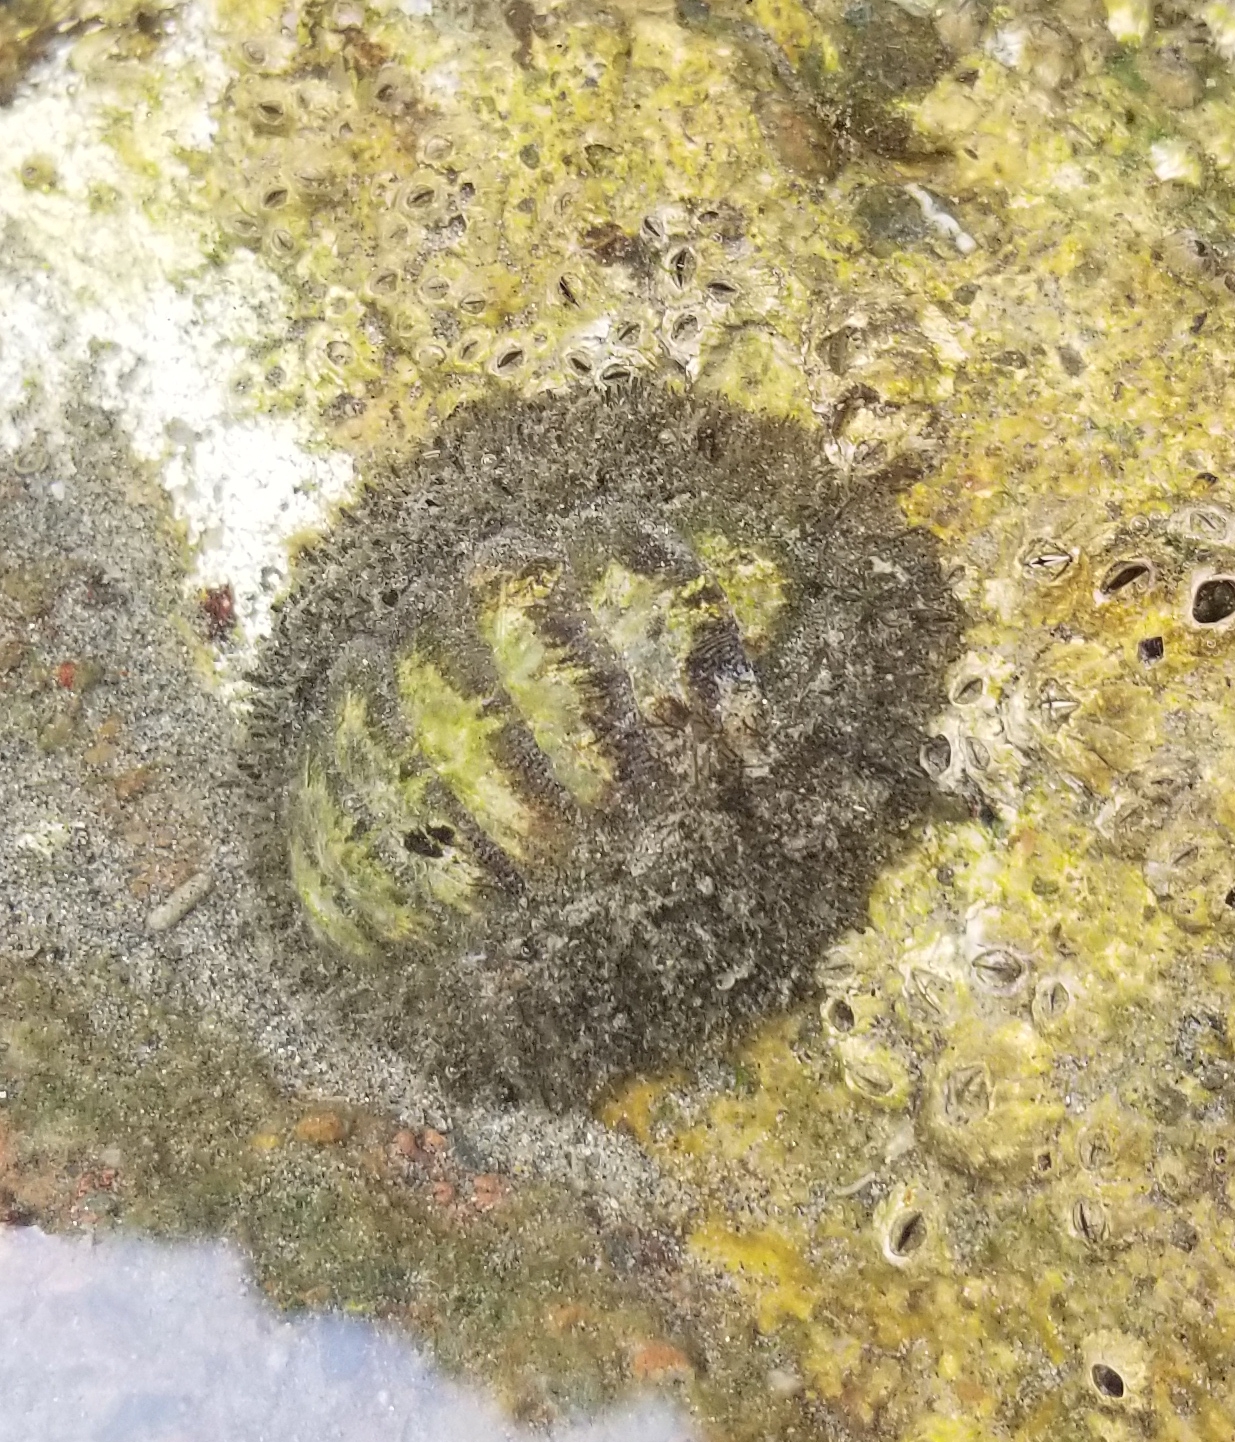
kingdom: Animalia
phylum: Mollusca
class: Polyplacophora
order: Chitonida
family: Mopaliidae
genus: Mopalia
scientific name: Mopalia muscosa
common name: Mossy chiton
